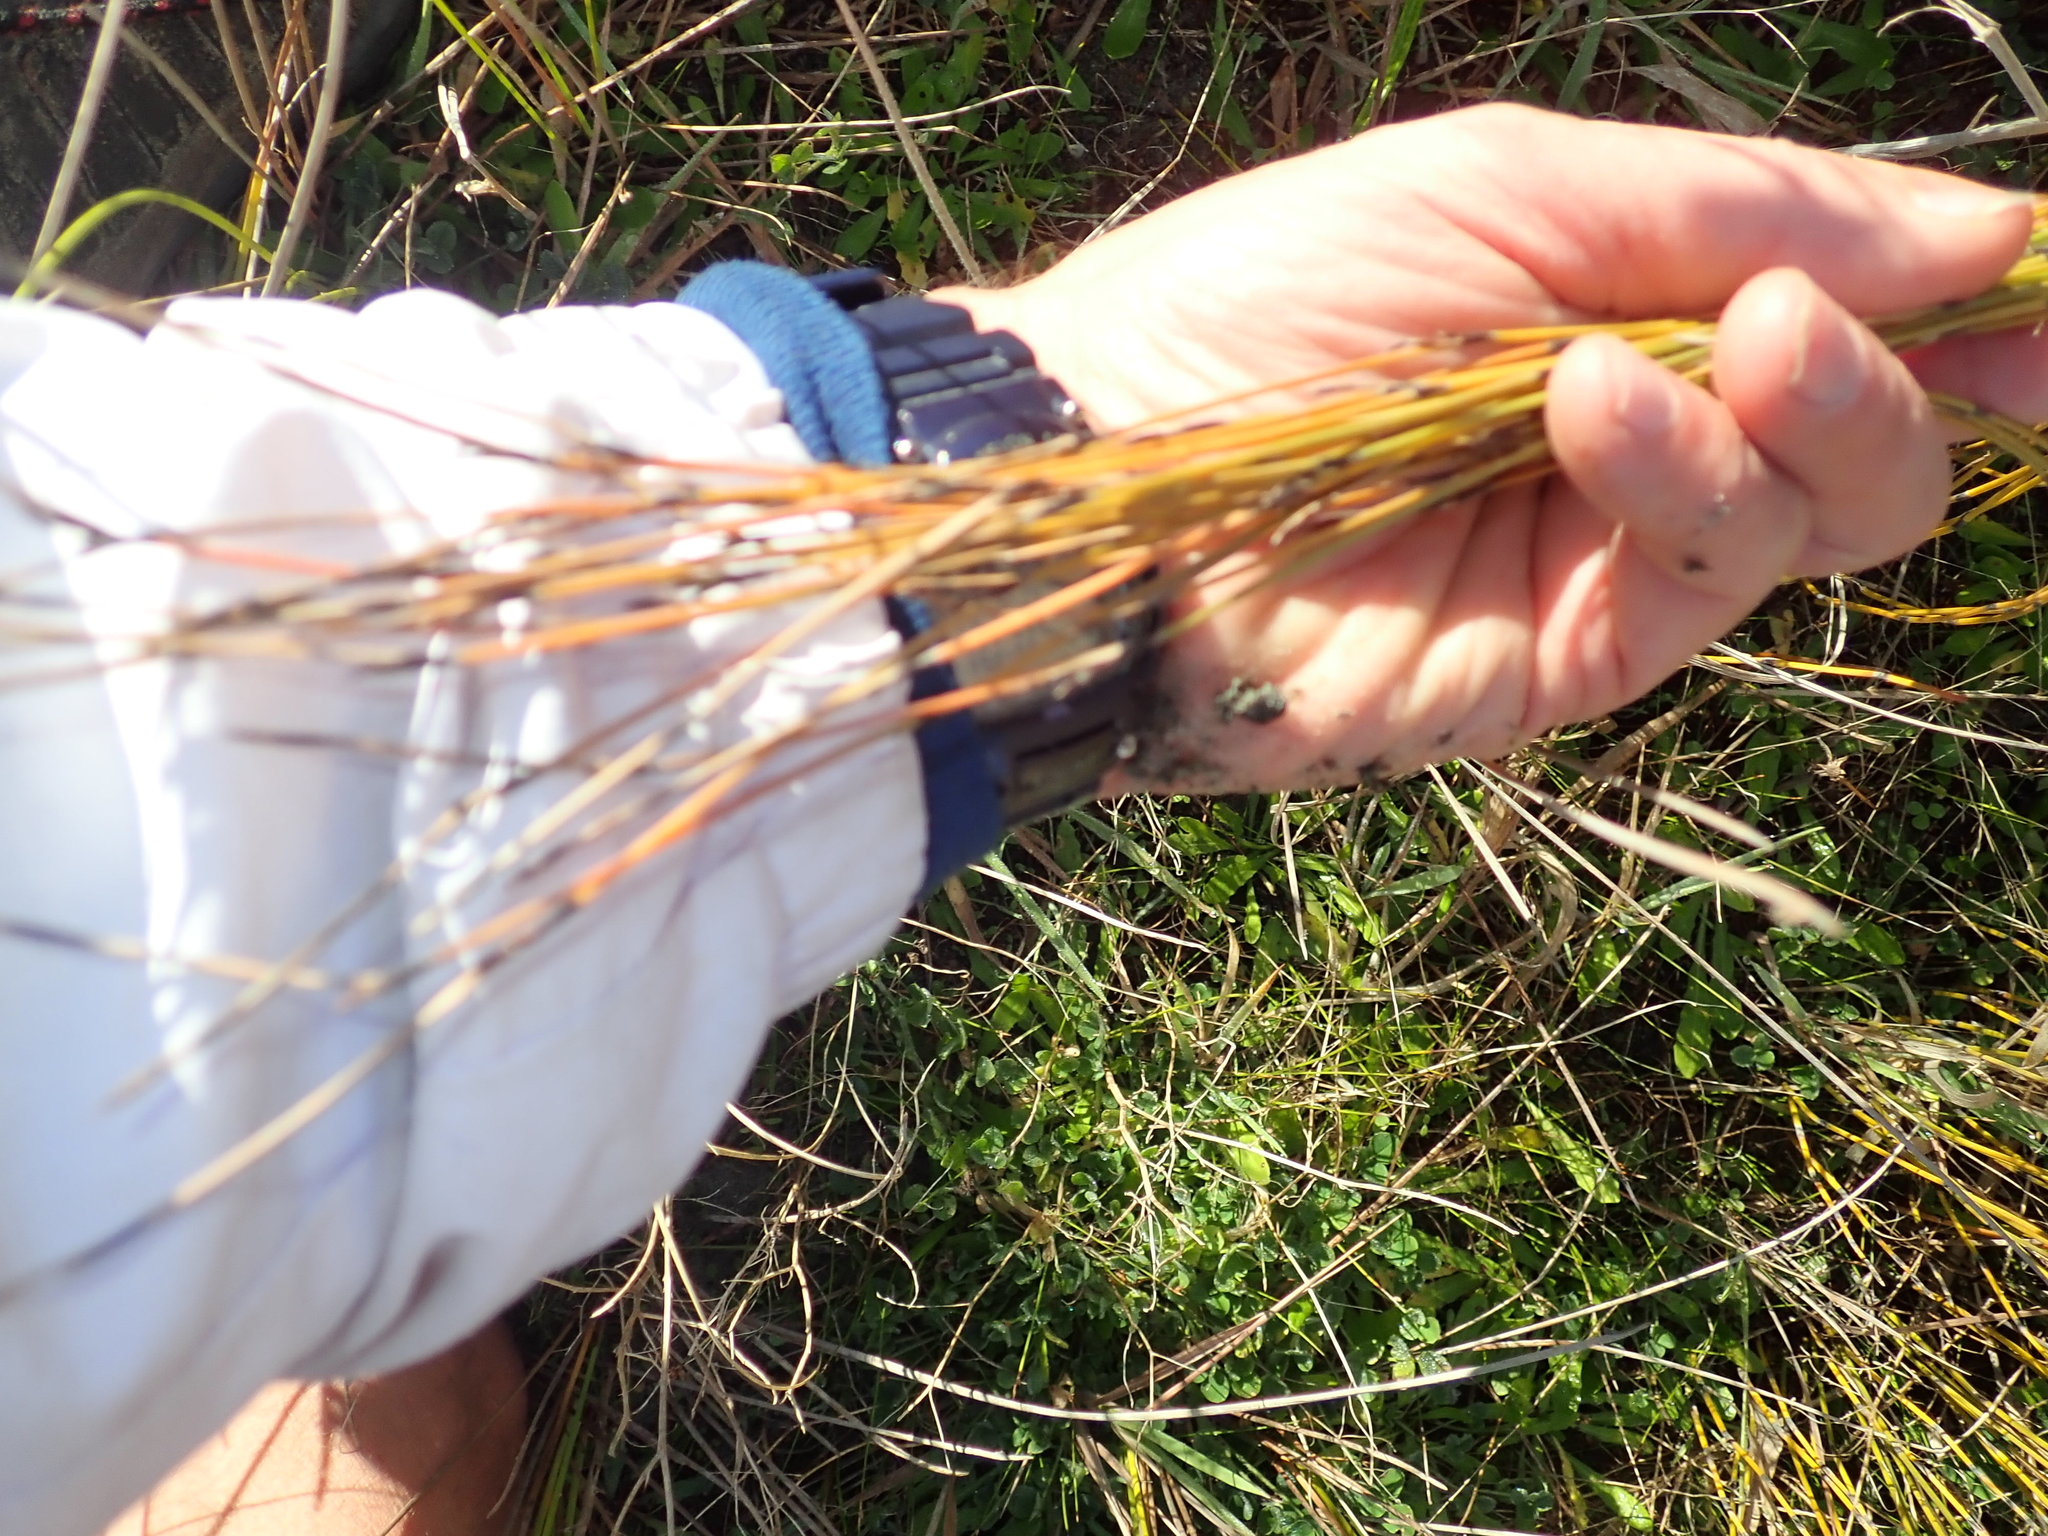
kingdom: Plantae
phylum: Tracheophyta
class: Liliopsida
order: Poales
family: Restionaceae
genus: Apodasmia
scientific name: Apodasmia similis
